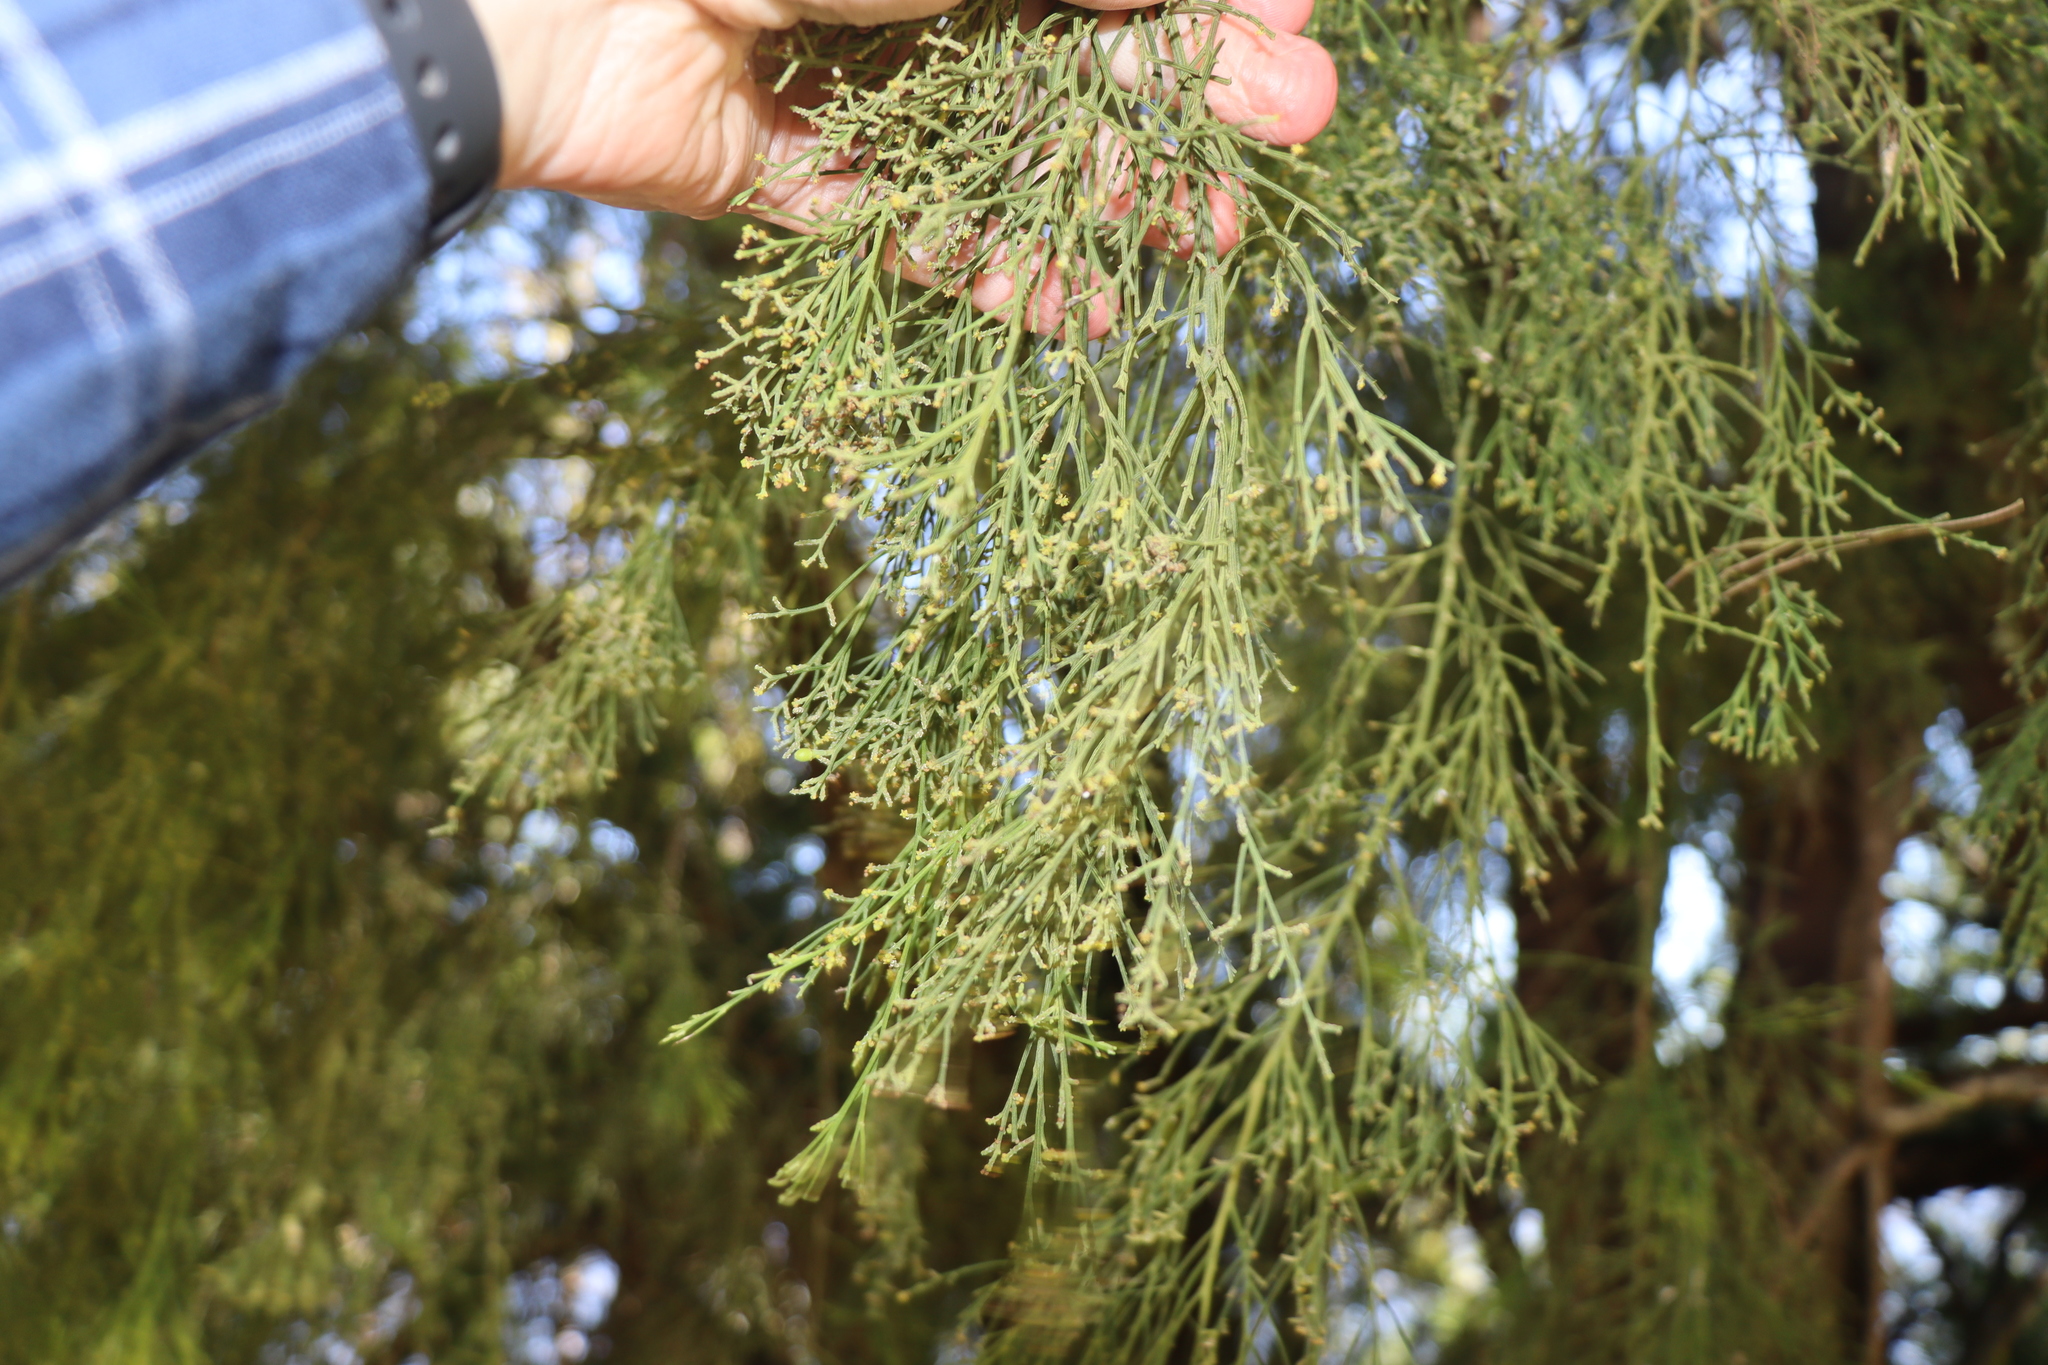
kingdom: Plantae
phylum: Tracheophyta
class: Magnoliopsida
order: Santalales
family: Santalaceae
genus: Exocarpos
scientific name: Exocarpos cupressiformis
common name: Cherry ballart
